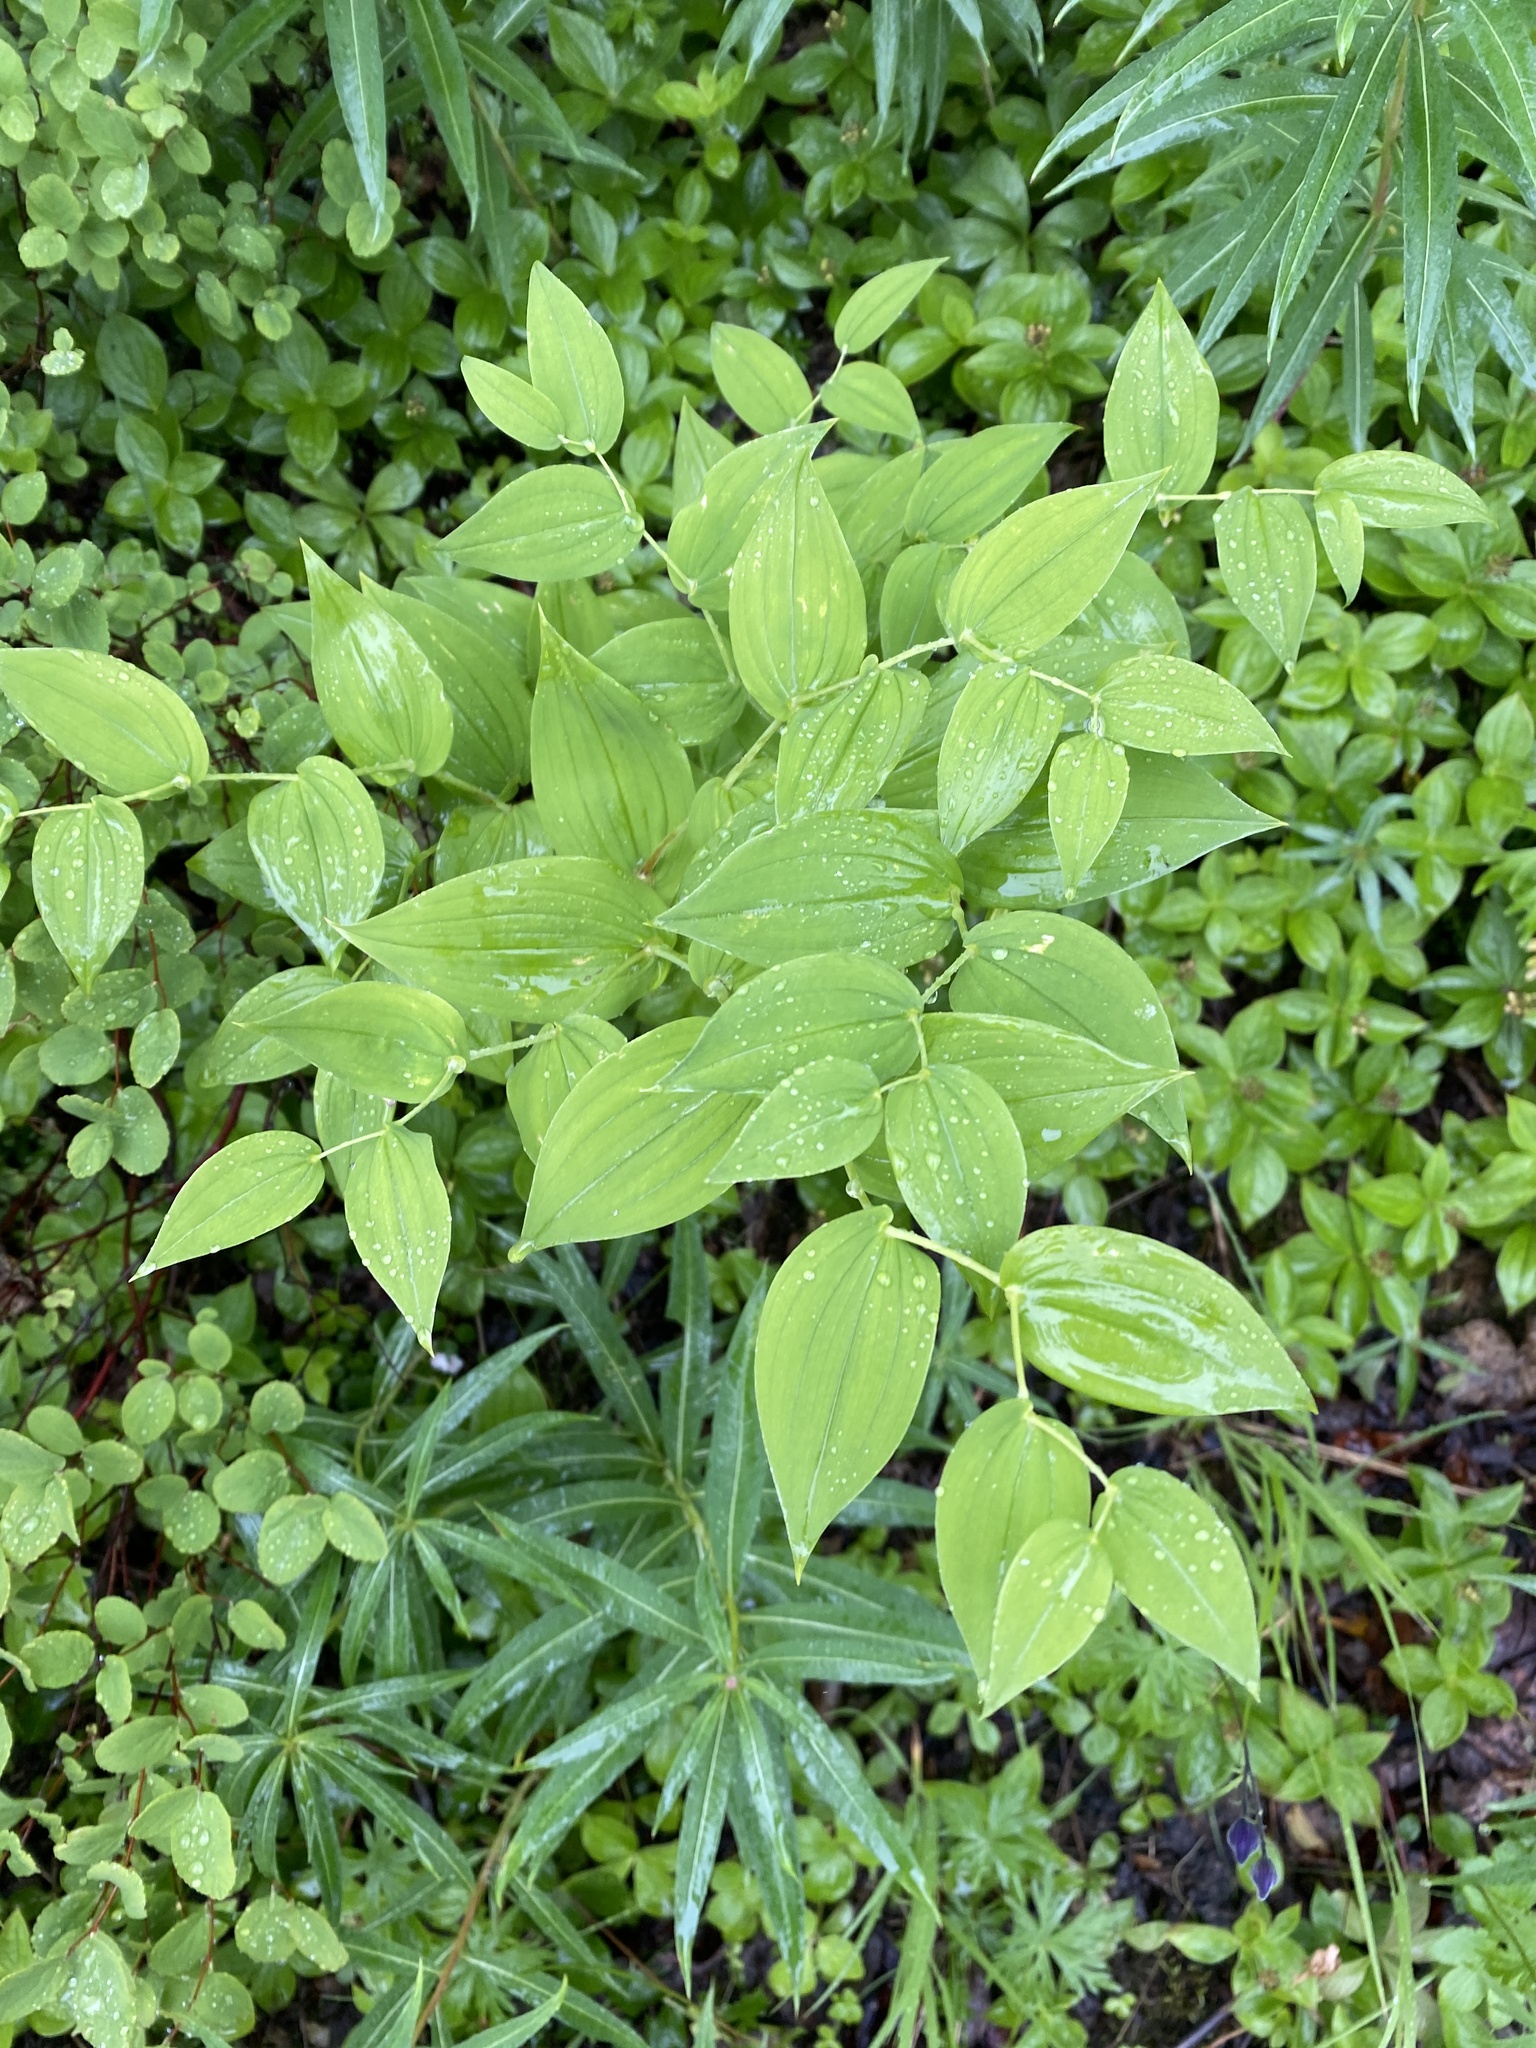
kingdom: Plantae
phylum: Tracheophyta
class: Liliopsida
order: Liliales
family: Liliaceae
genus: Streptopus
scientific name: Streptopus amplexifolius
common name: Clasp twisted stalk
